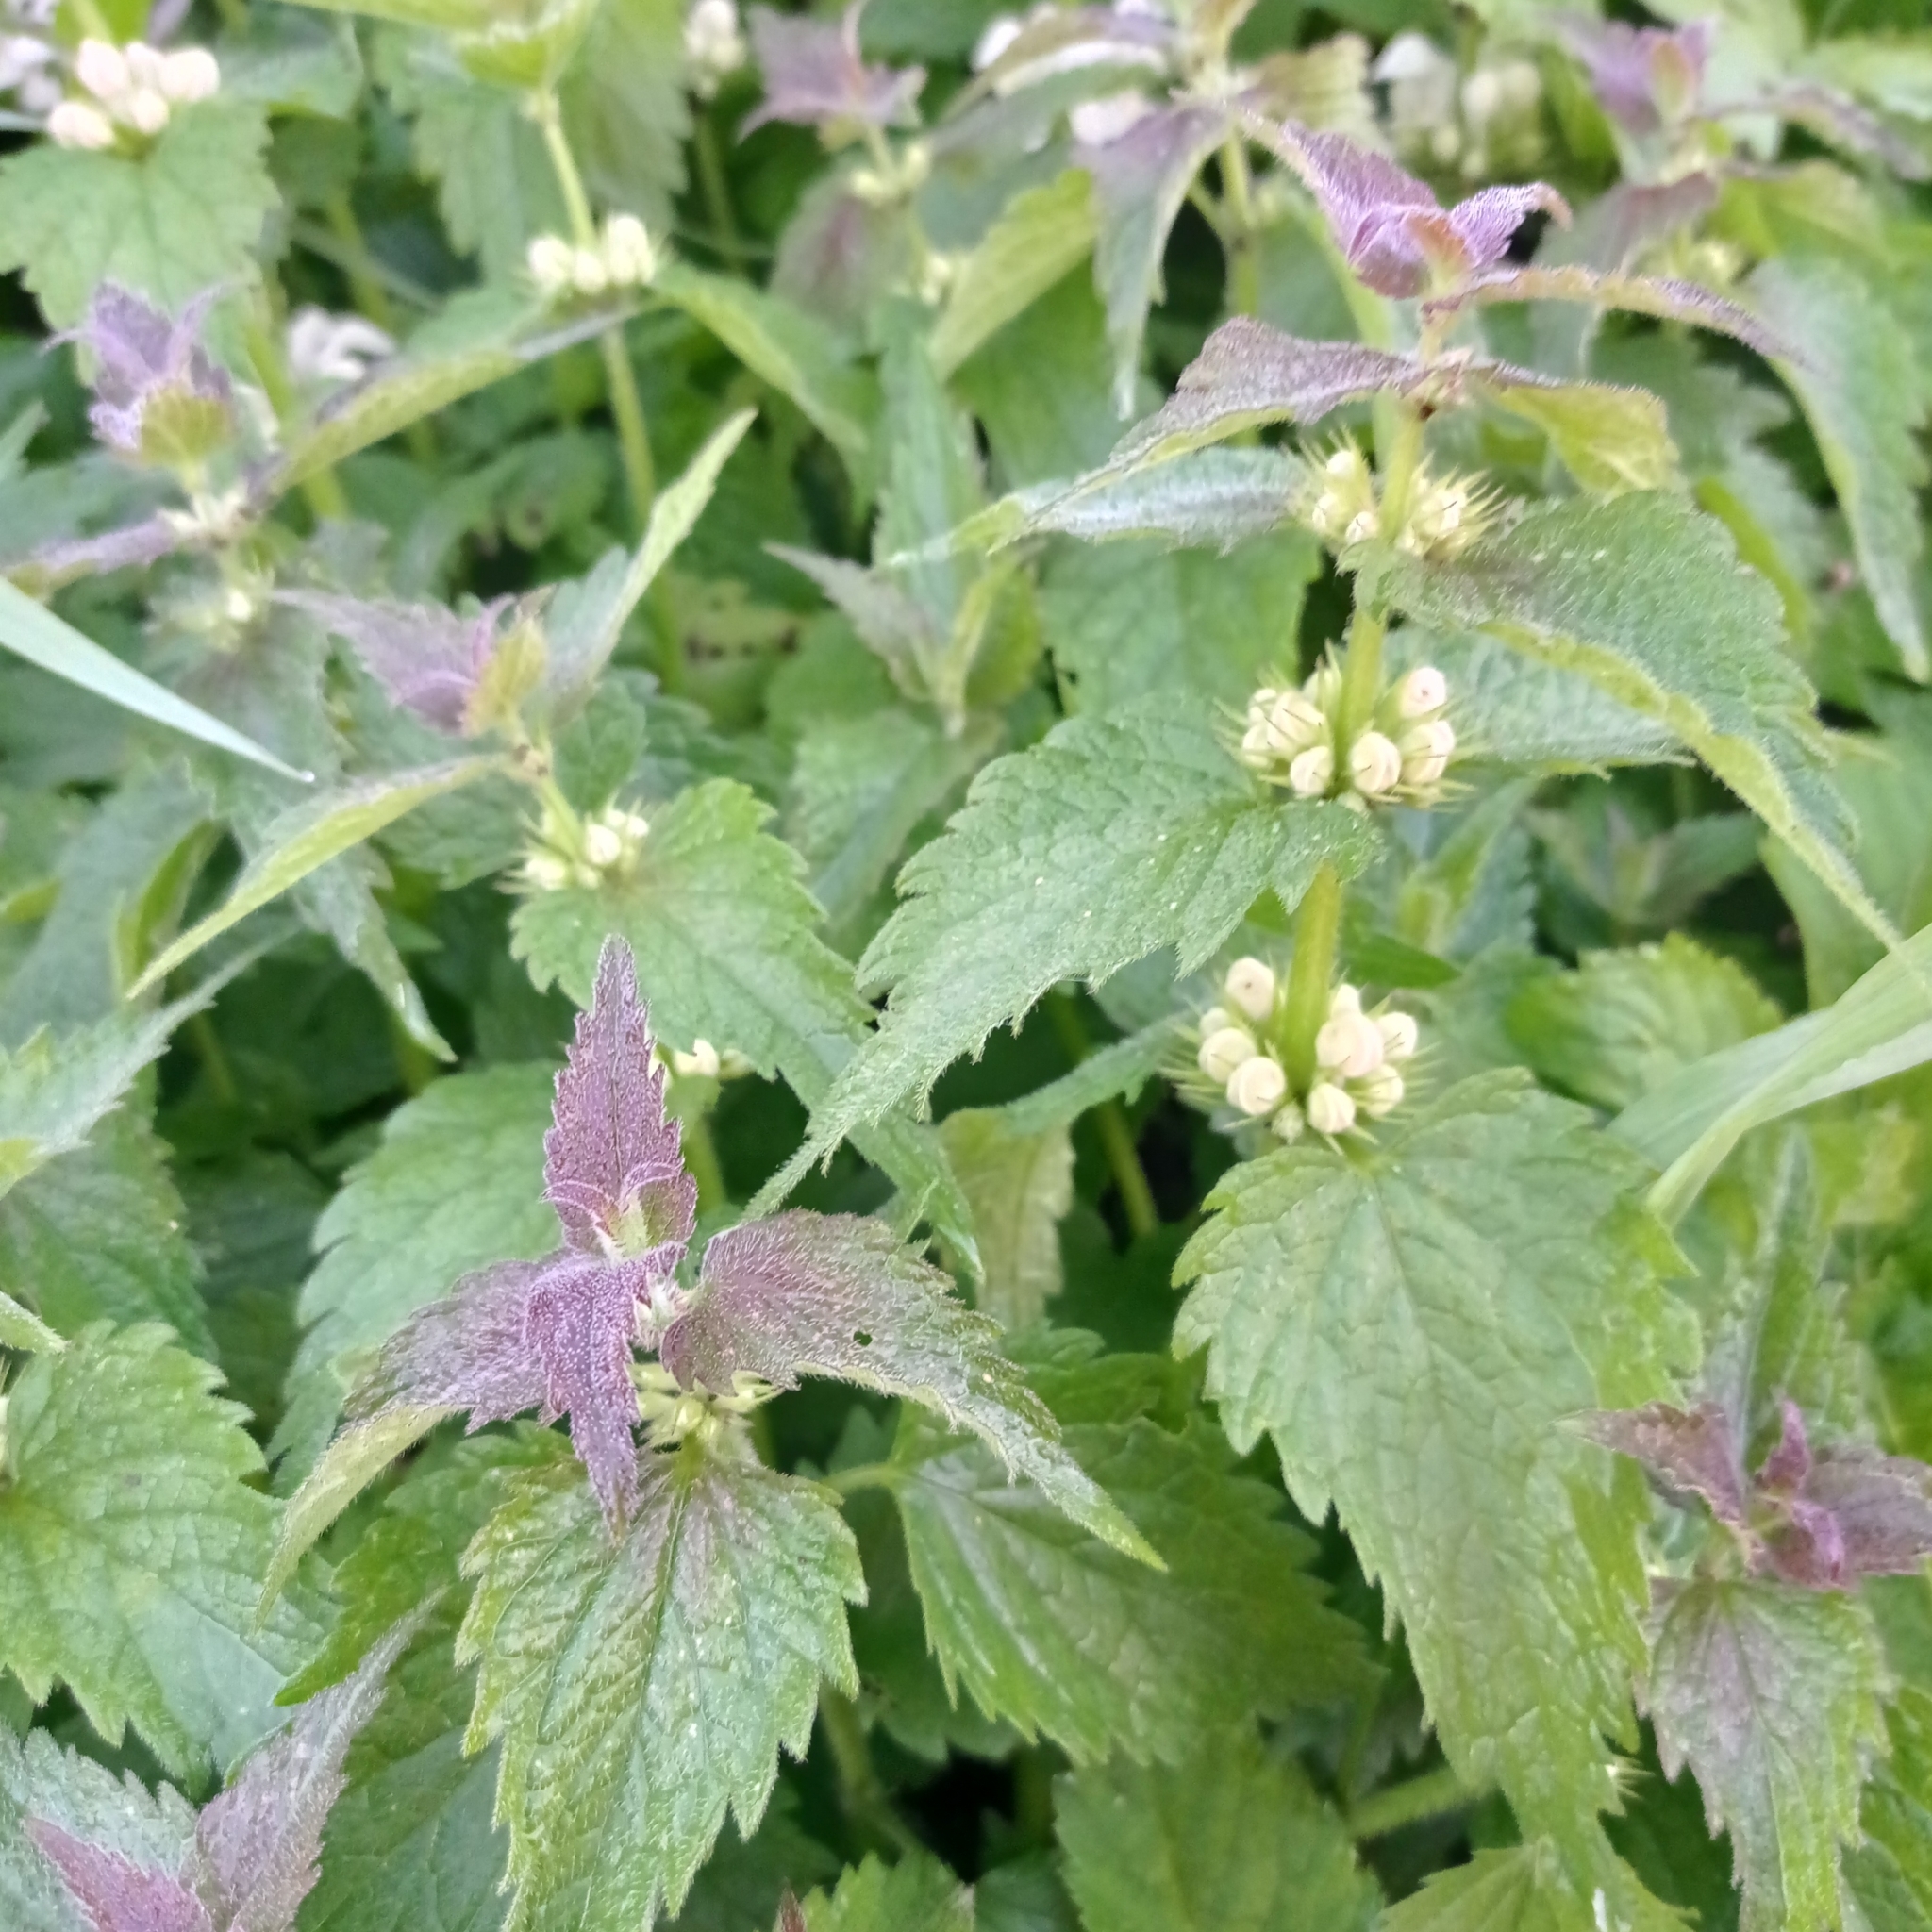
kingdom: Plantae
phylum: Tracheophyta
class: Magnoliopsida
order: Lamiales
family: Lamiaceae
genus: Lamium
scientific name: Lamium album
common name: White dead-nettle
